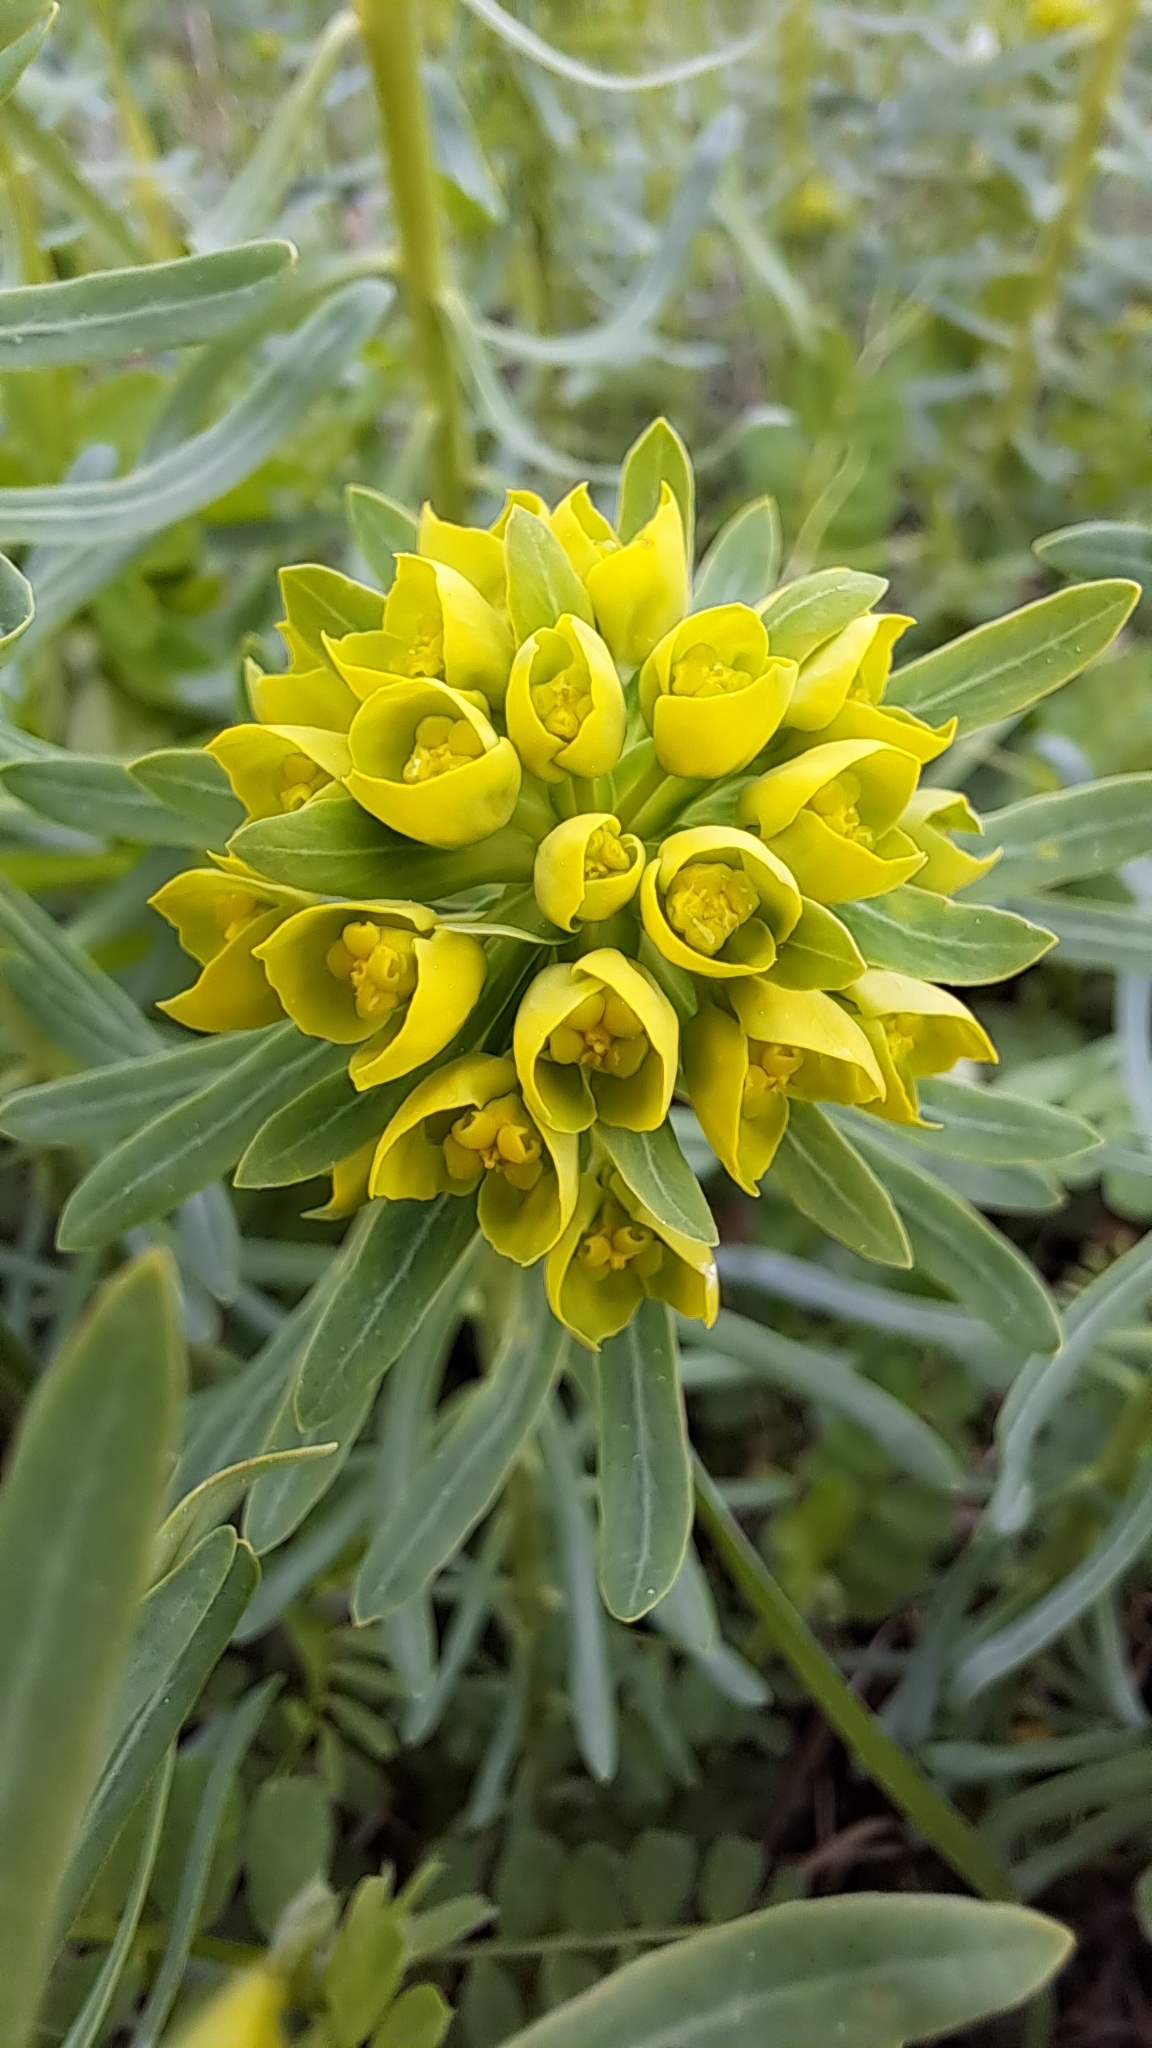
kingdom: Plantae
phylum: Tracheophyta
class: Magnoliopsida
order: Malpighiales
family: Euphorbiaceae
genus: Euphorbia
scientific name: Euphorbia cyparissias
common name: Cypress spurge
